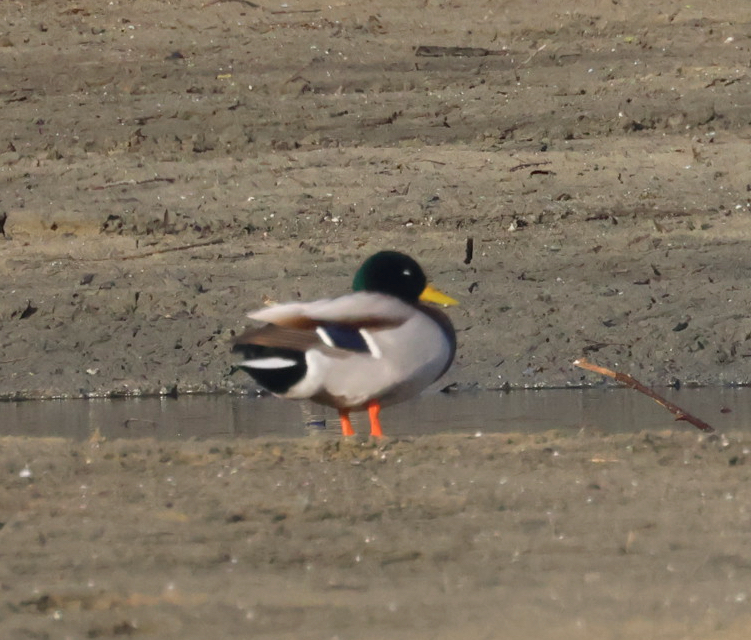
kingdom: Animalia
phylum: Chordata
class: Aves
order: Anseriformes
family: Anatidae
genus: Anas
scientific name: Anas platyrhynchos
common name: Mallard
